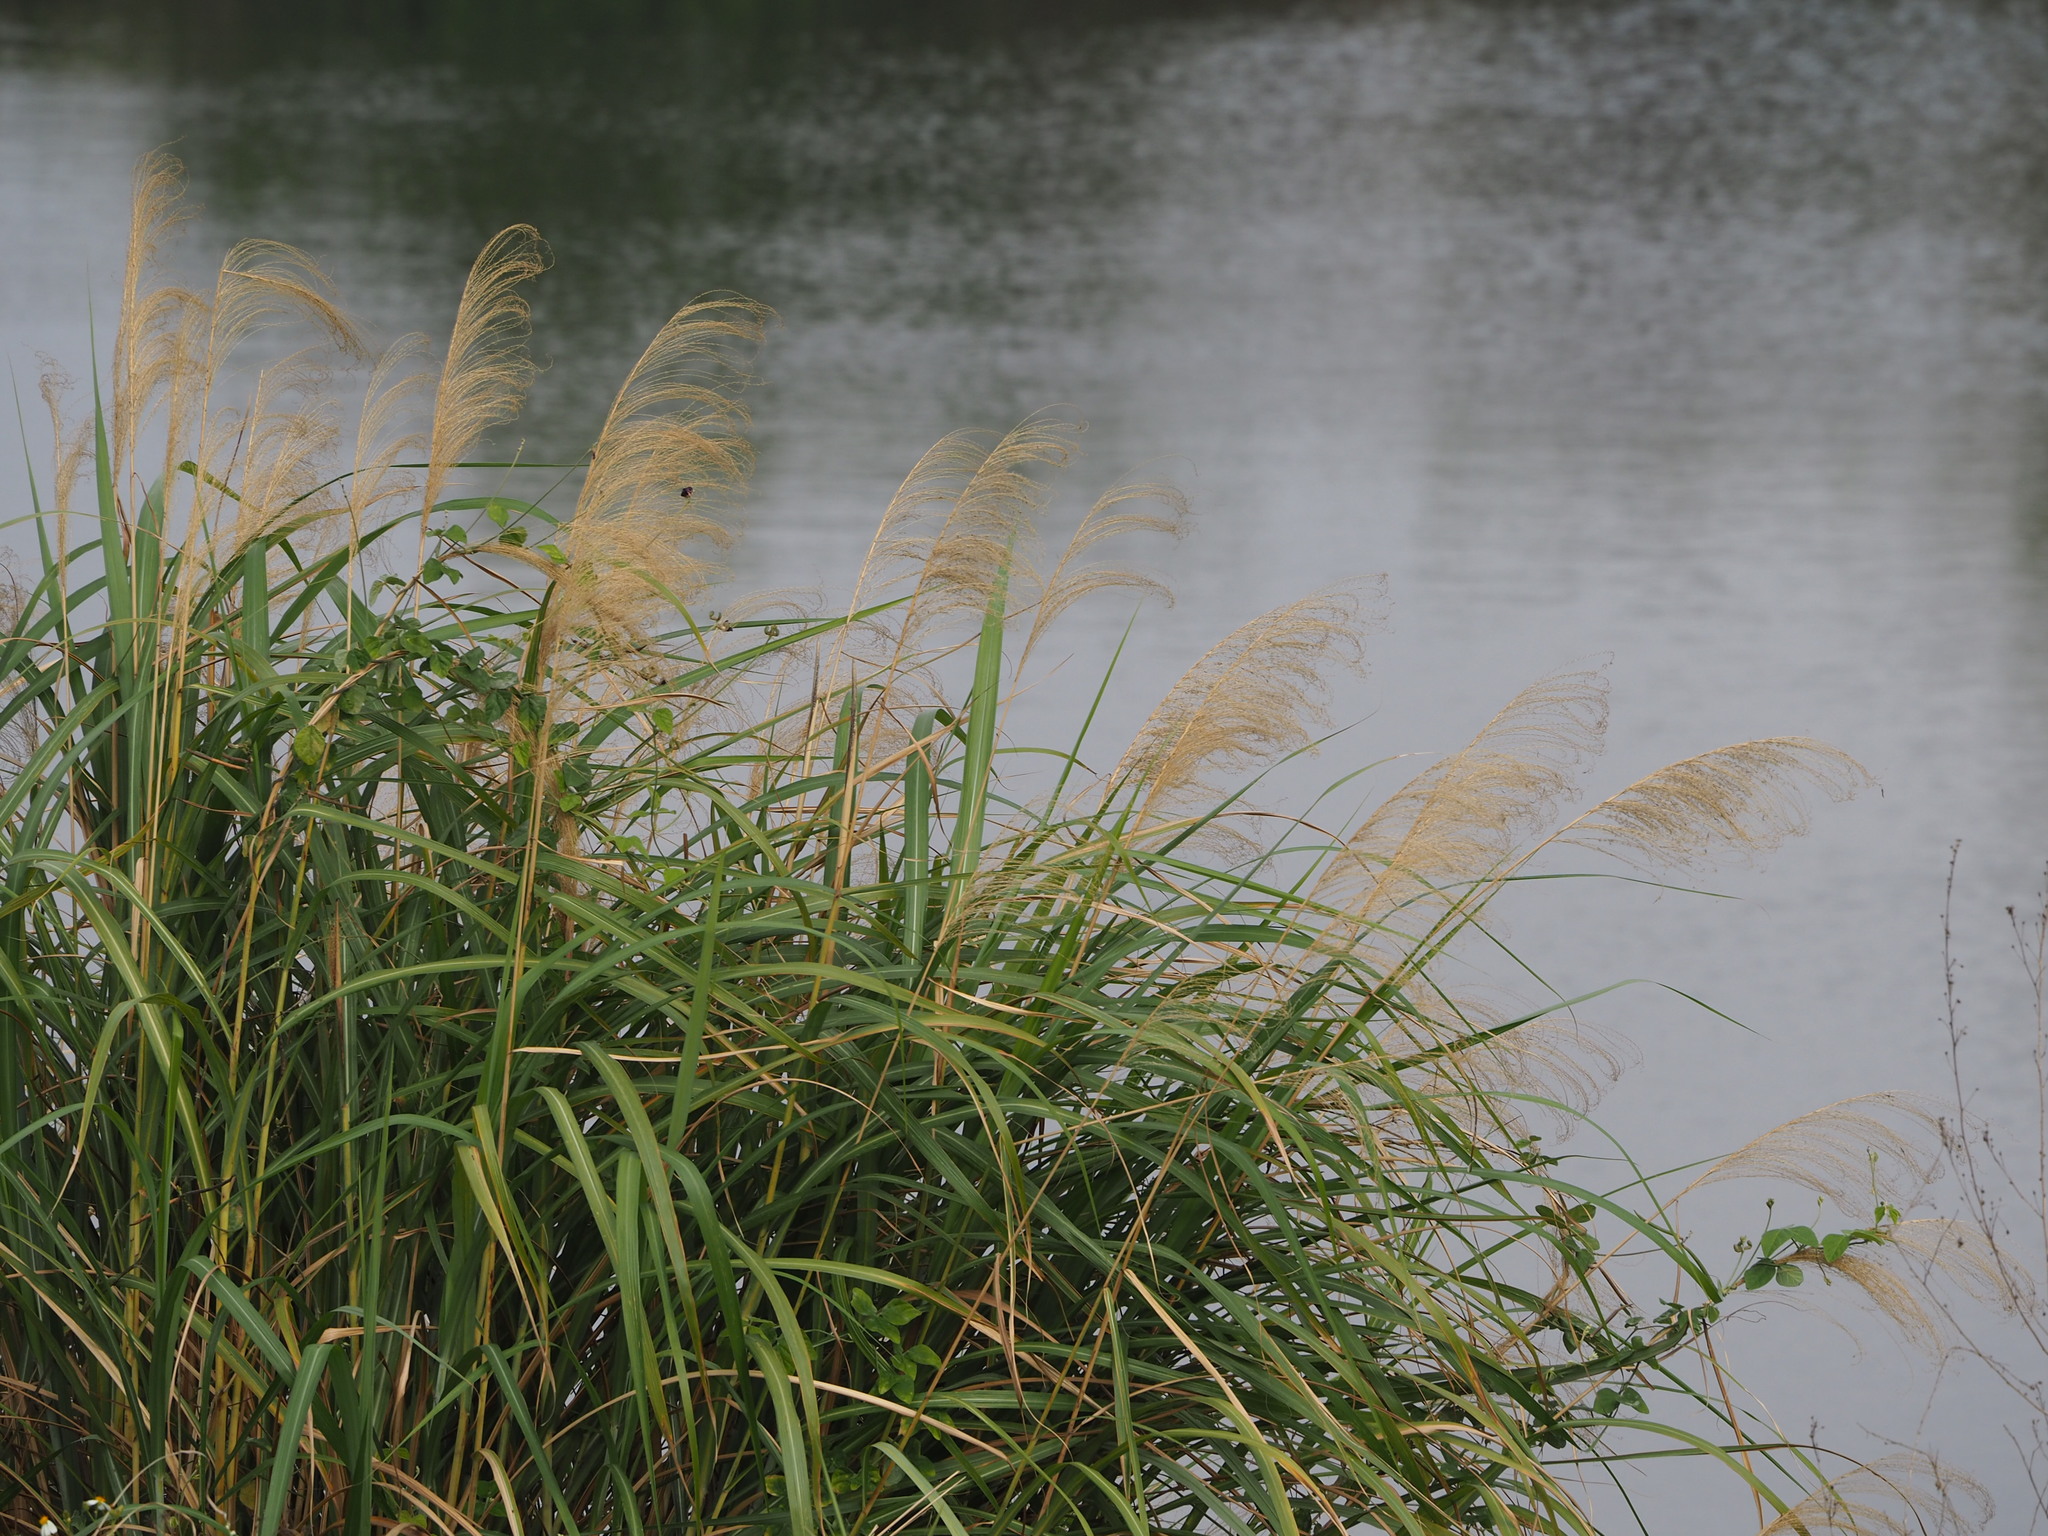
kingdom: Plantae
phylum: Tracheophyta
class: Liliopsida
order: Poales
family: Poaceae
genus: Miscanthus
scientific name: Miscanthus sinensis
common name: Chinese silvergrass
